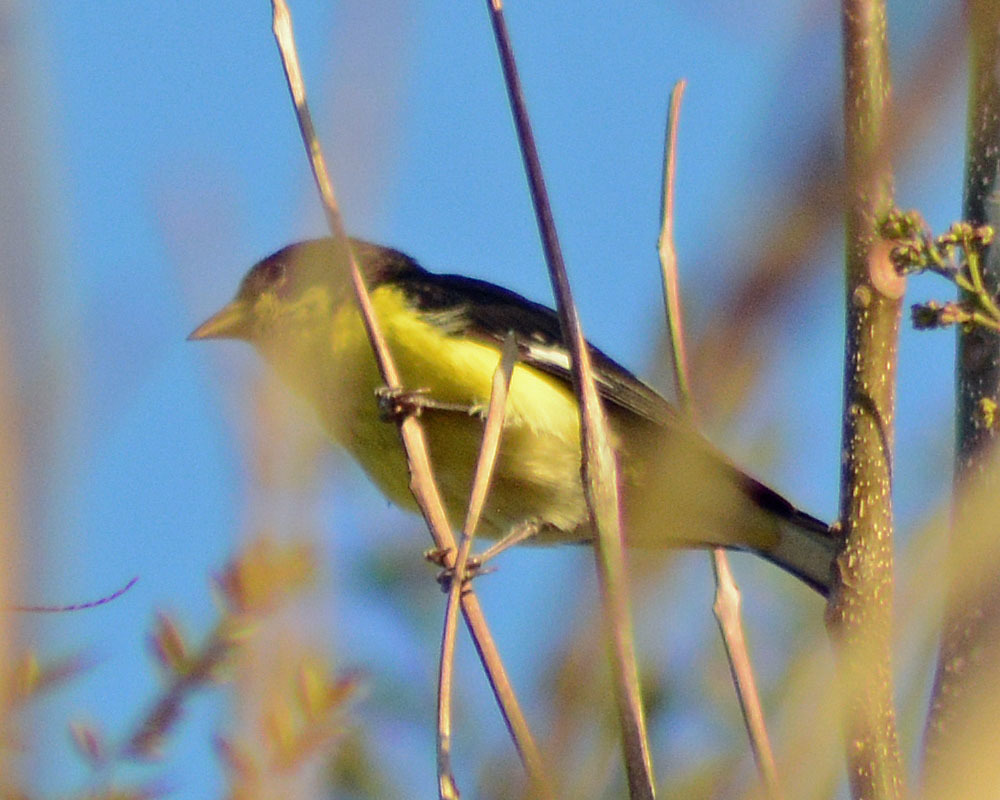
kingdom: Animalia
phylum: Chordata
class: Aves
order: Passeriformes
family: Fringillidae
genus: Spinus
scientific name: Spinus psaltria
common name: Lesser goldfinch
